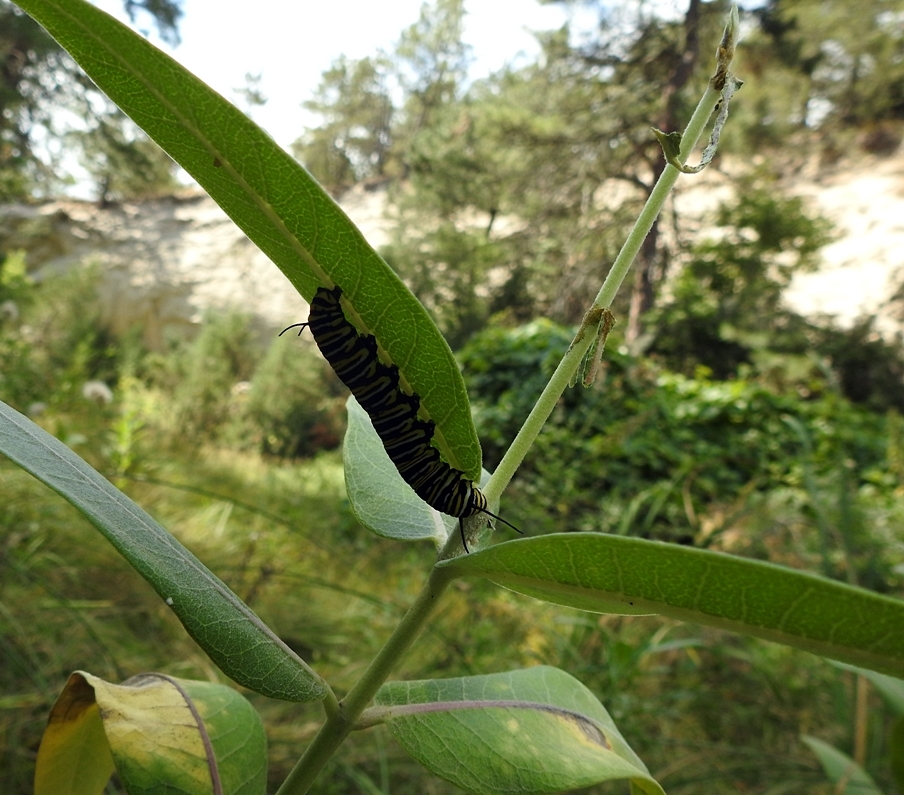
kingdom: Animalia
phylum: Arthropoda
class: Insecta
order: Lepidoptera
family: Nymphalidae
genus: Danaus
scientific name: Danaus plexippus
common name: Monarch
